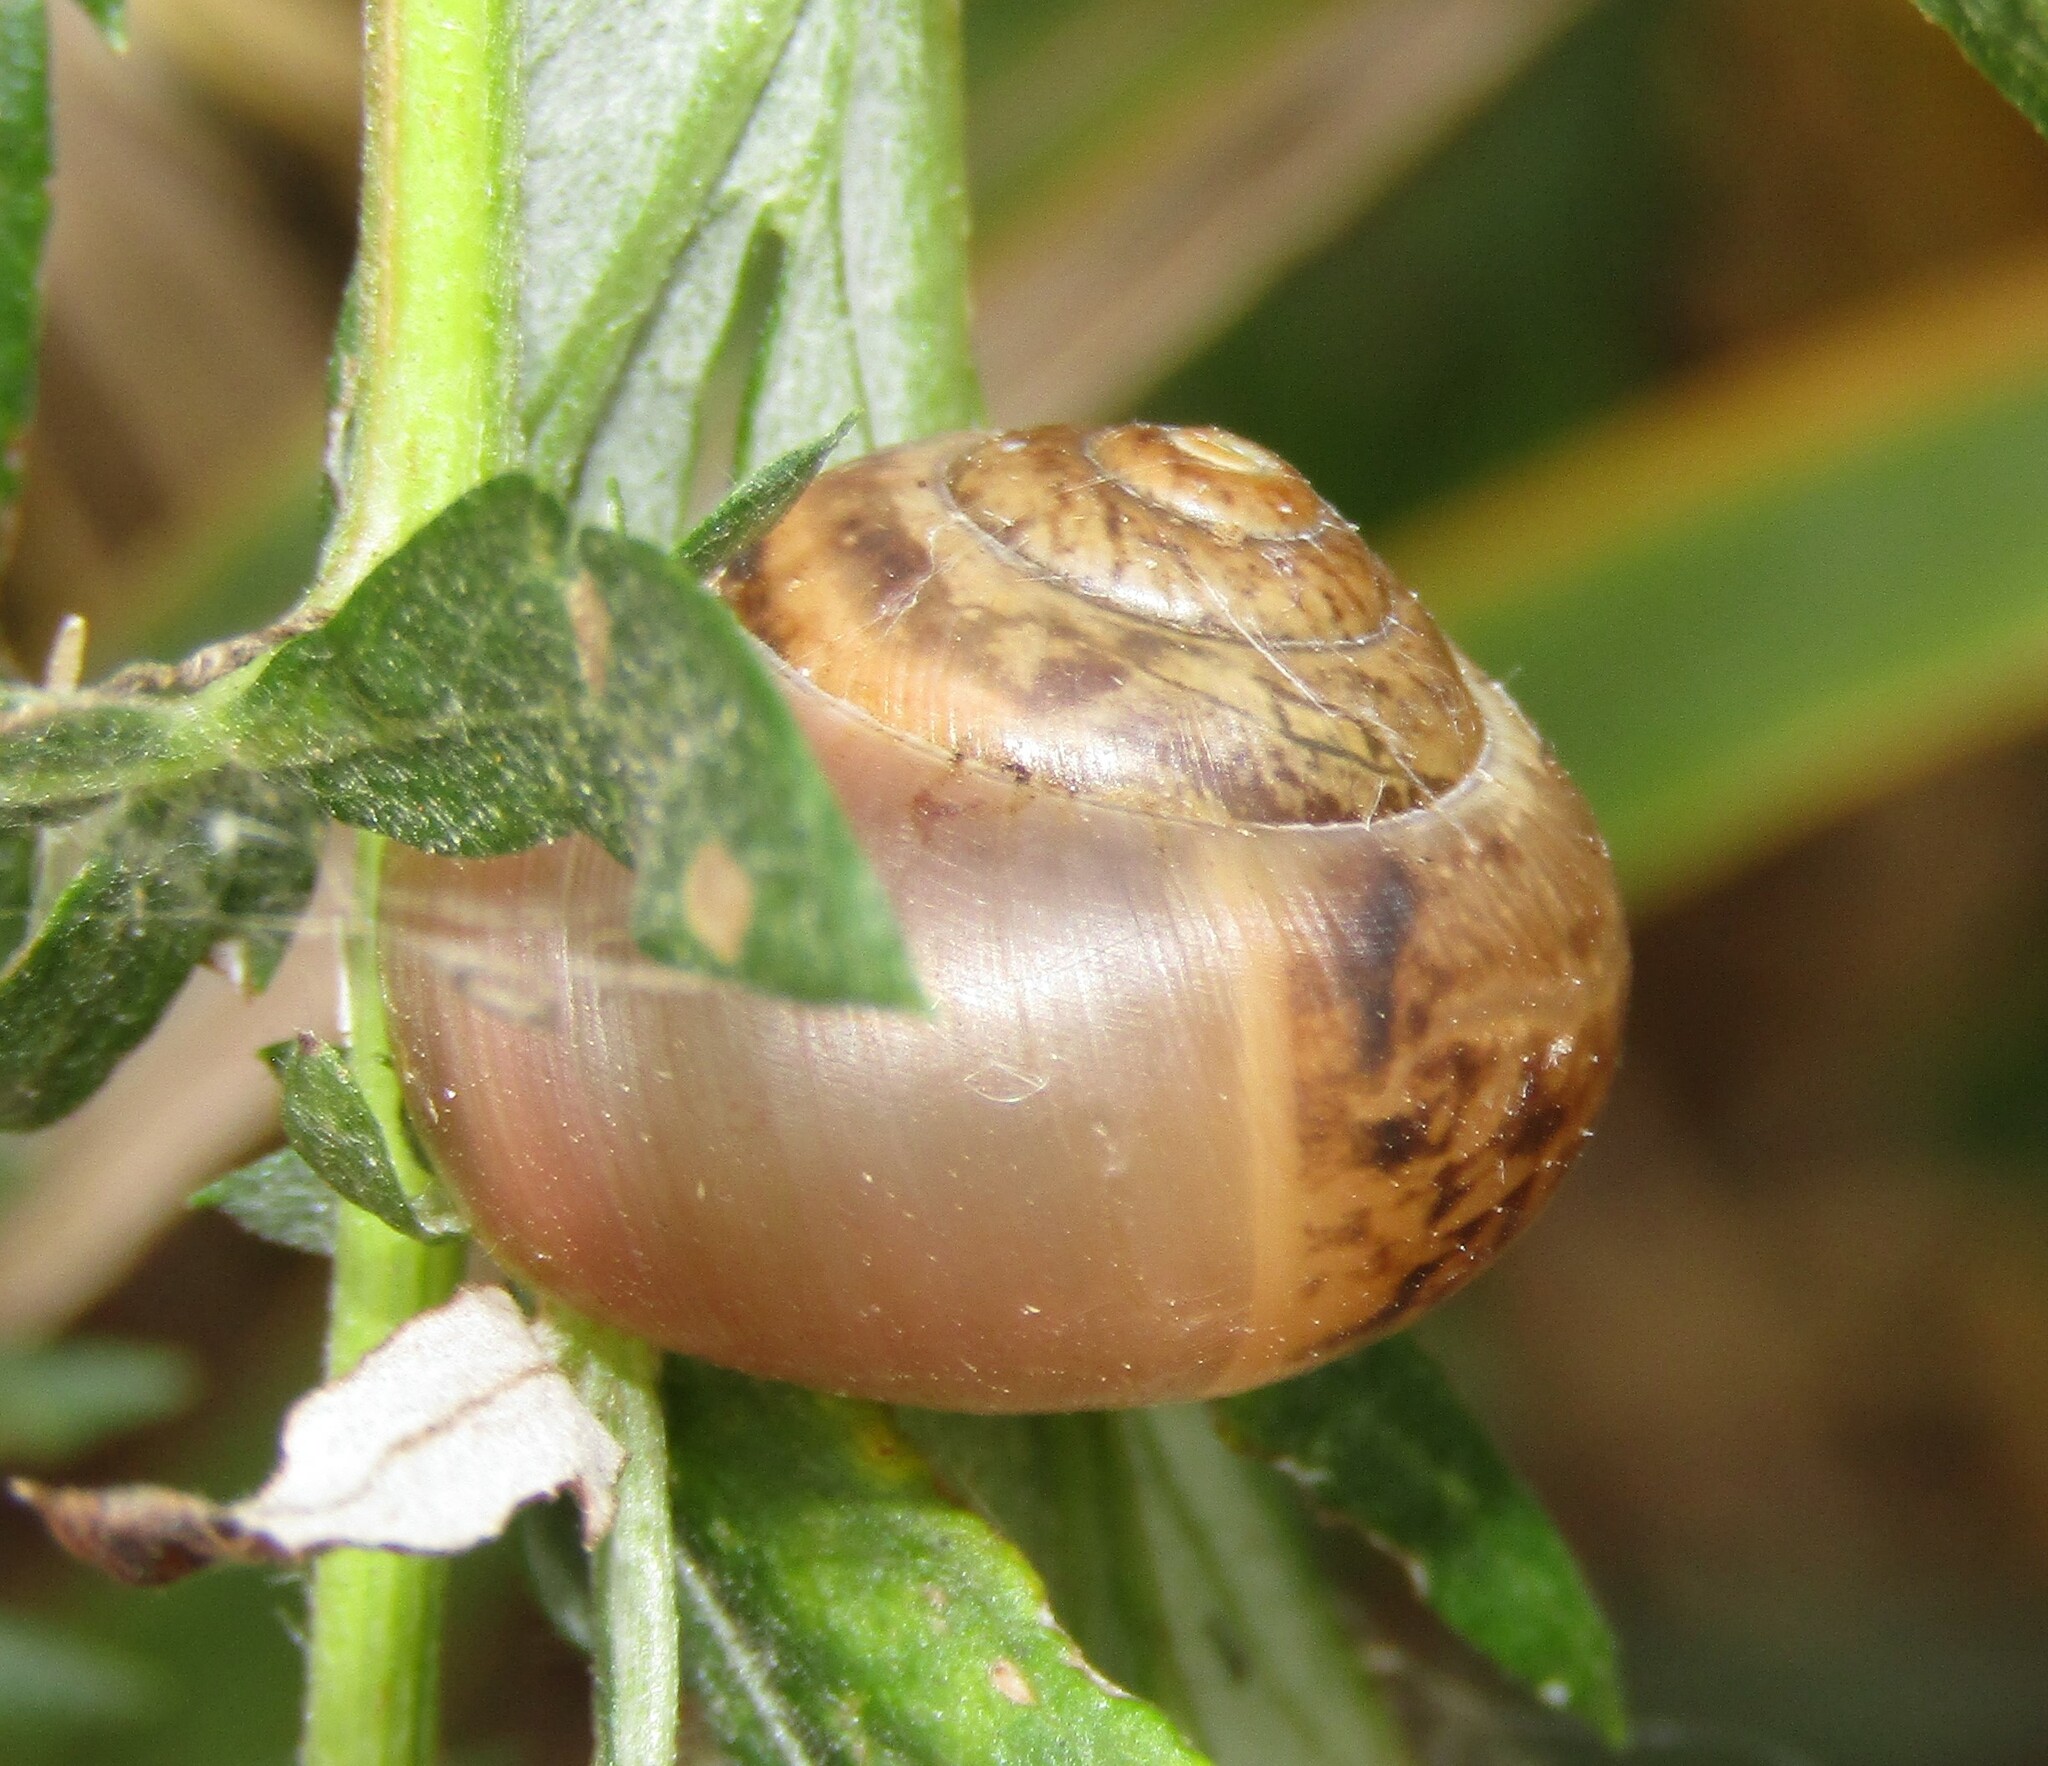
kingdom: Animalia
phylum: Mollusca
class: Gastropoda
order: Stylommatophora
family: Camaenidae
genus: Fruticicola
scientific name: Fruticicola fruticum
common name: Bush snail
